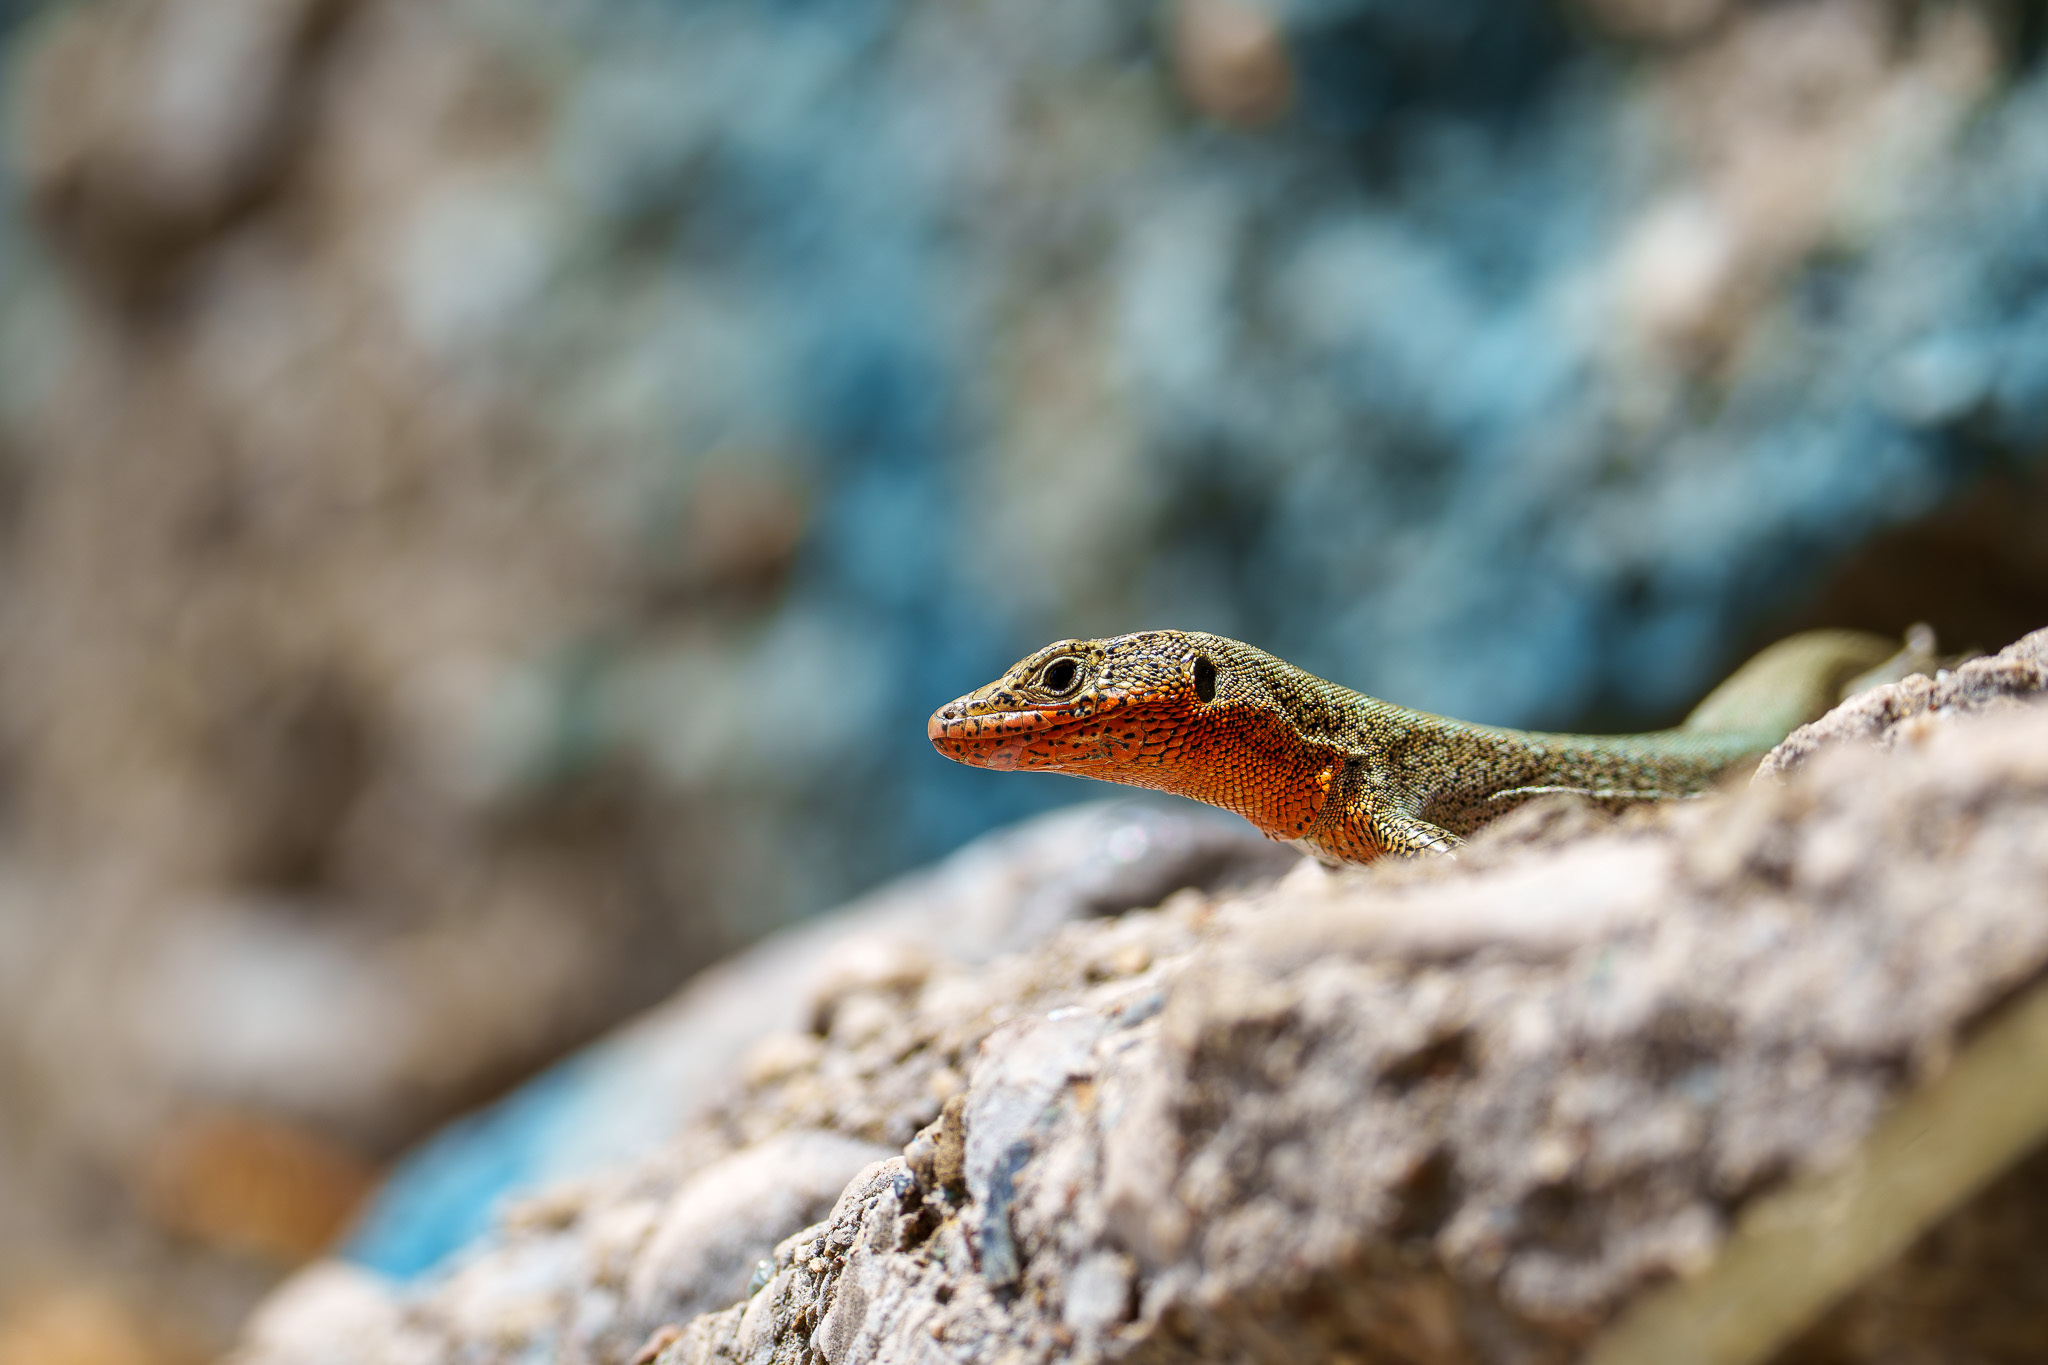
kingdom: Animalia
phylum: Chordata
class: Squamata
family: Lacertidae
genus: Anatololacerta
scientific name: Anatololacerta pelasgiana
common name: Pelasgian rock lizard
